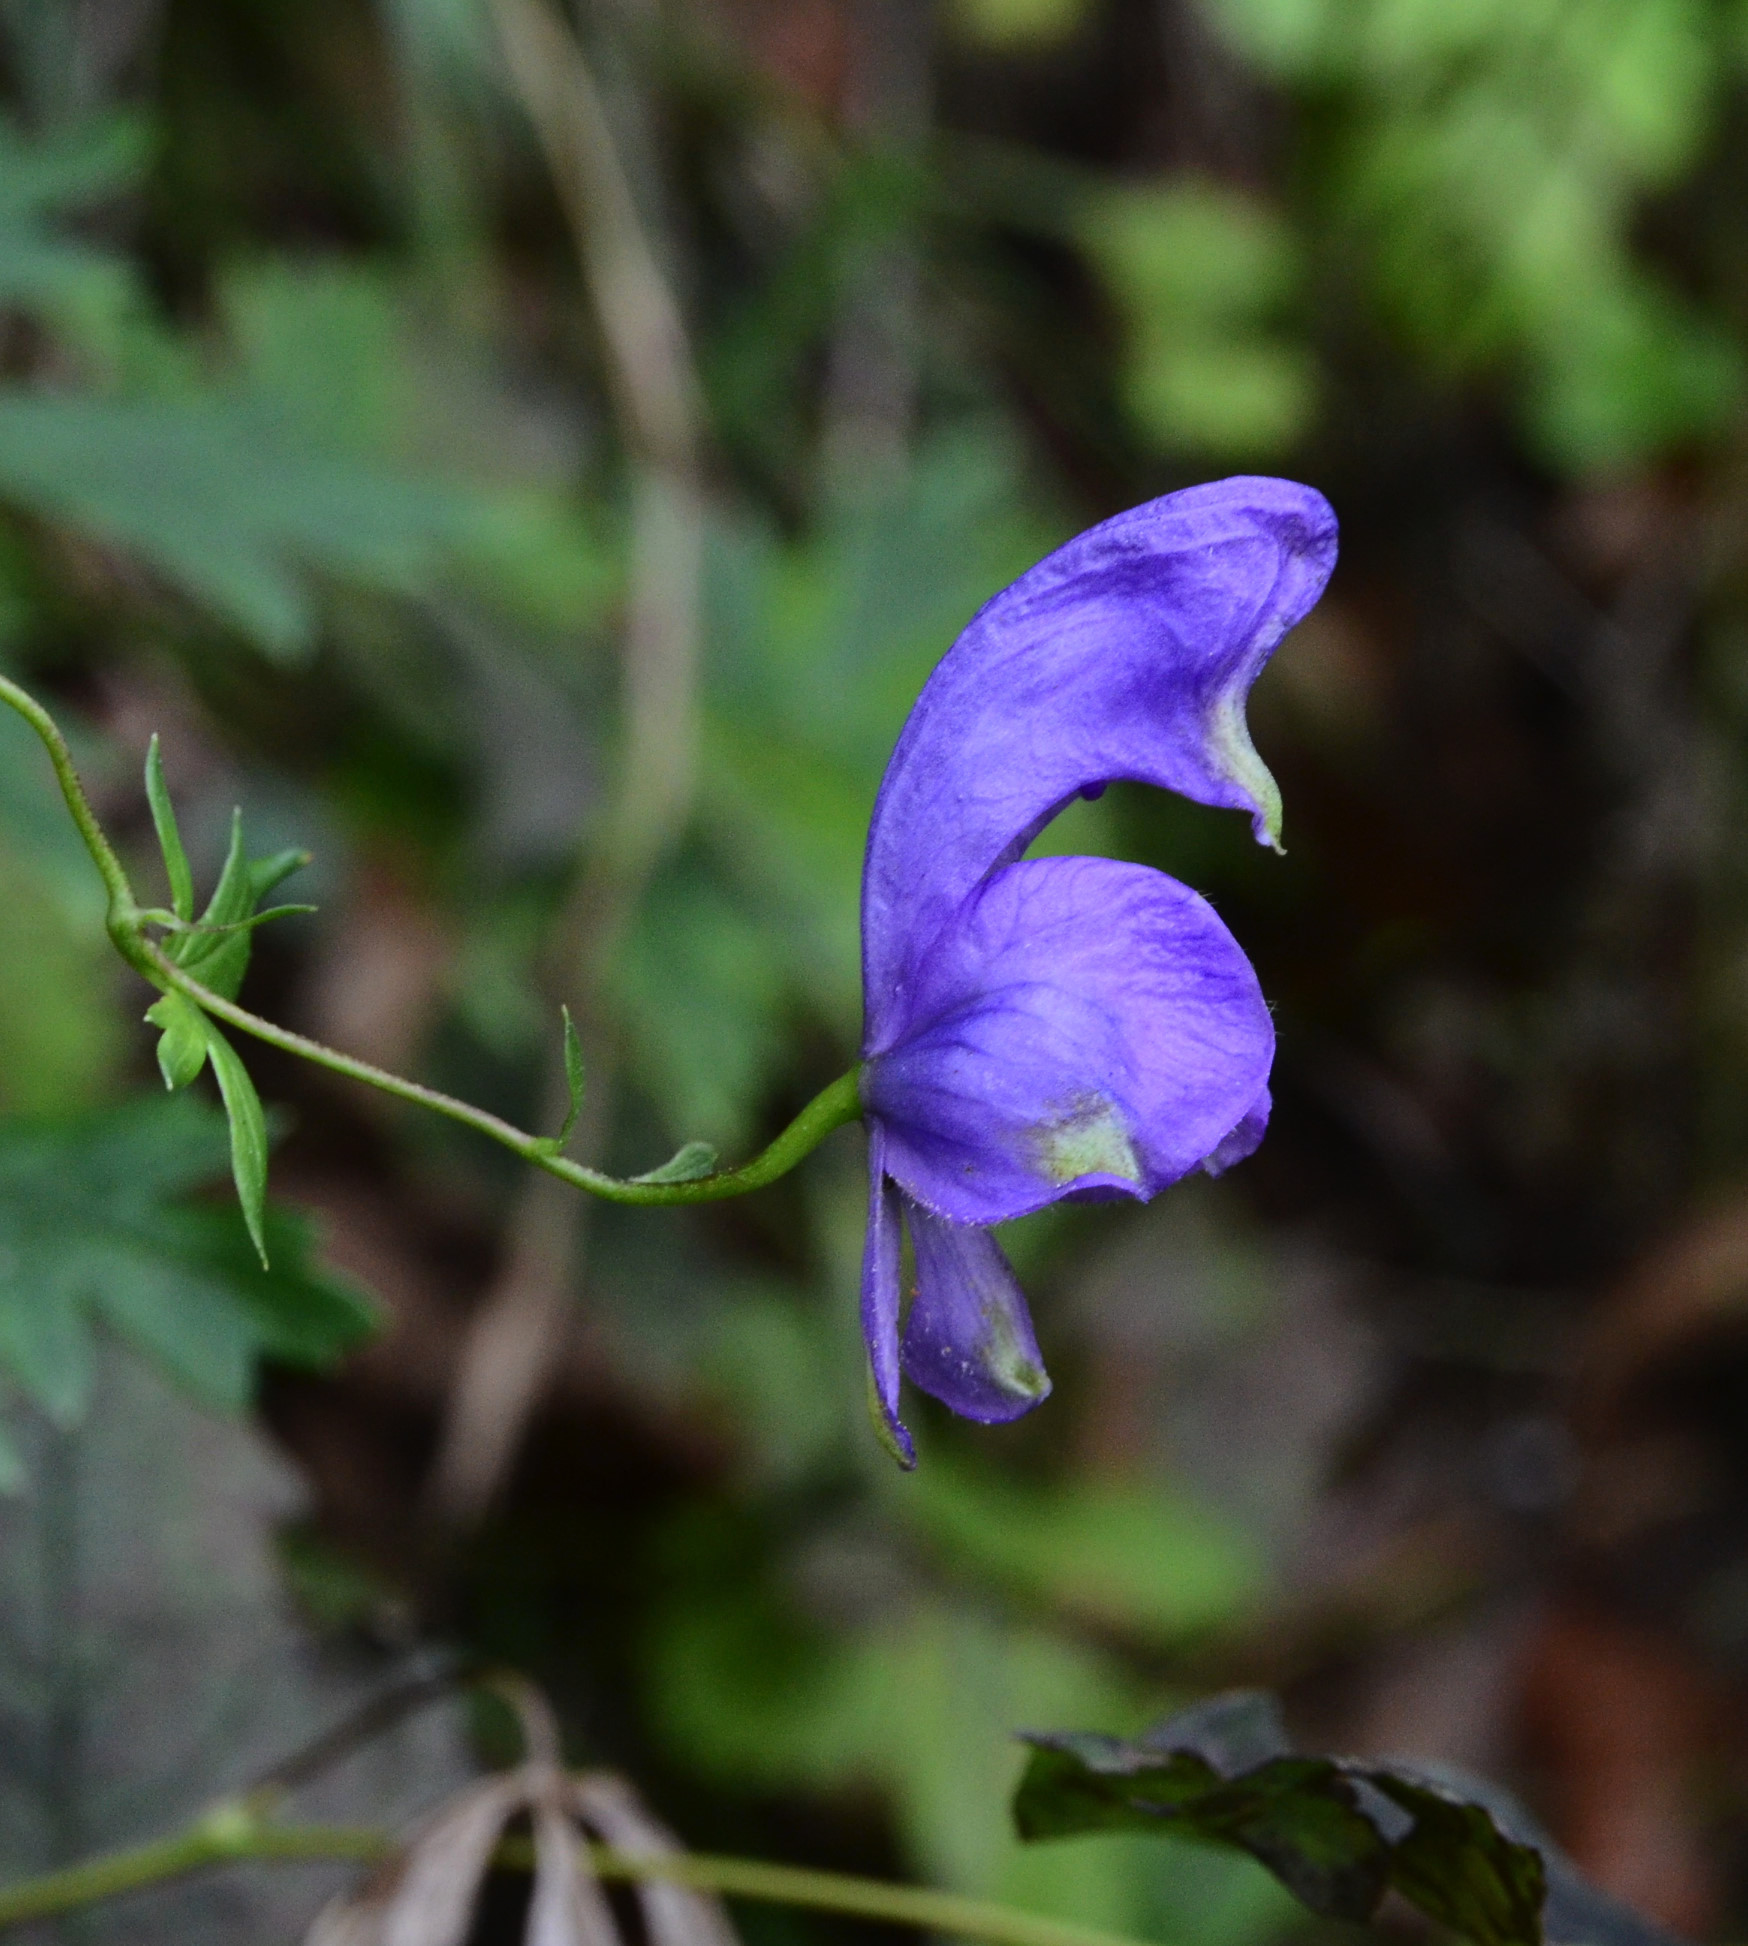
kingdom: Plantae
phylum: Tracheophyta
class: Magnoliopsida
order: Ranunculales
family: Ranunculaceae
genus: Aconitum
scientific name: Aconitum variegatum
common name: Manchurian monkshood
